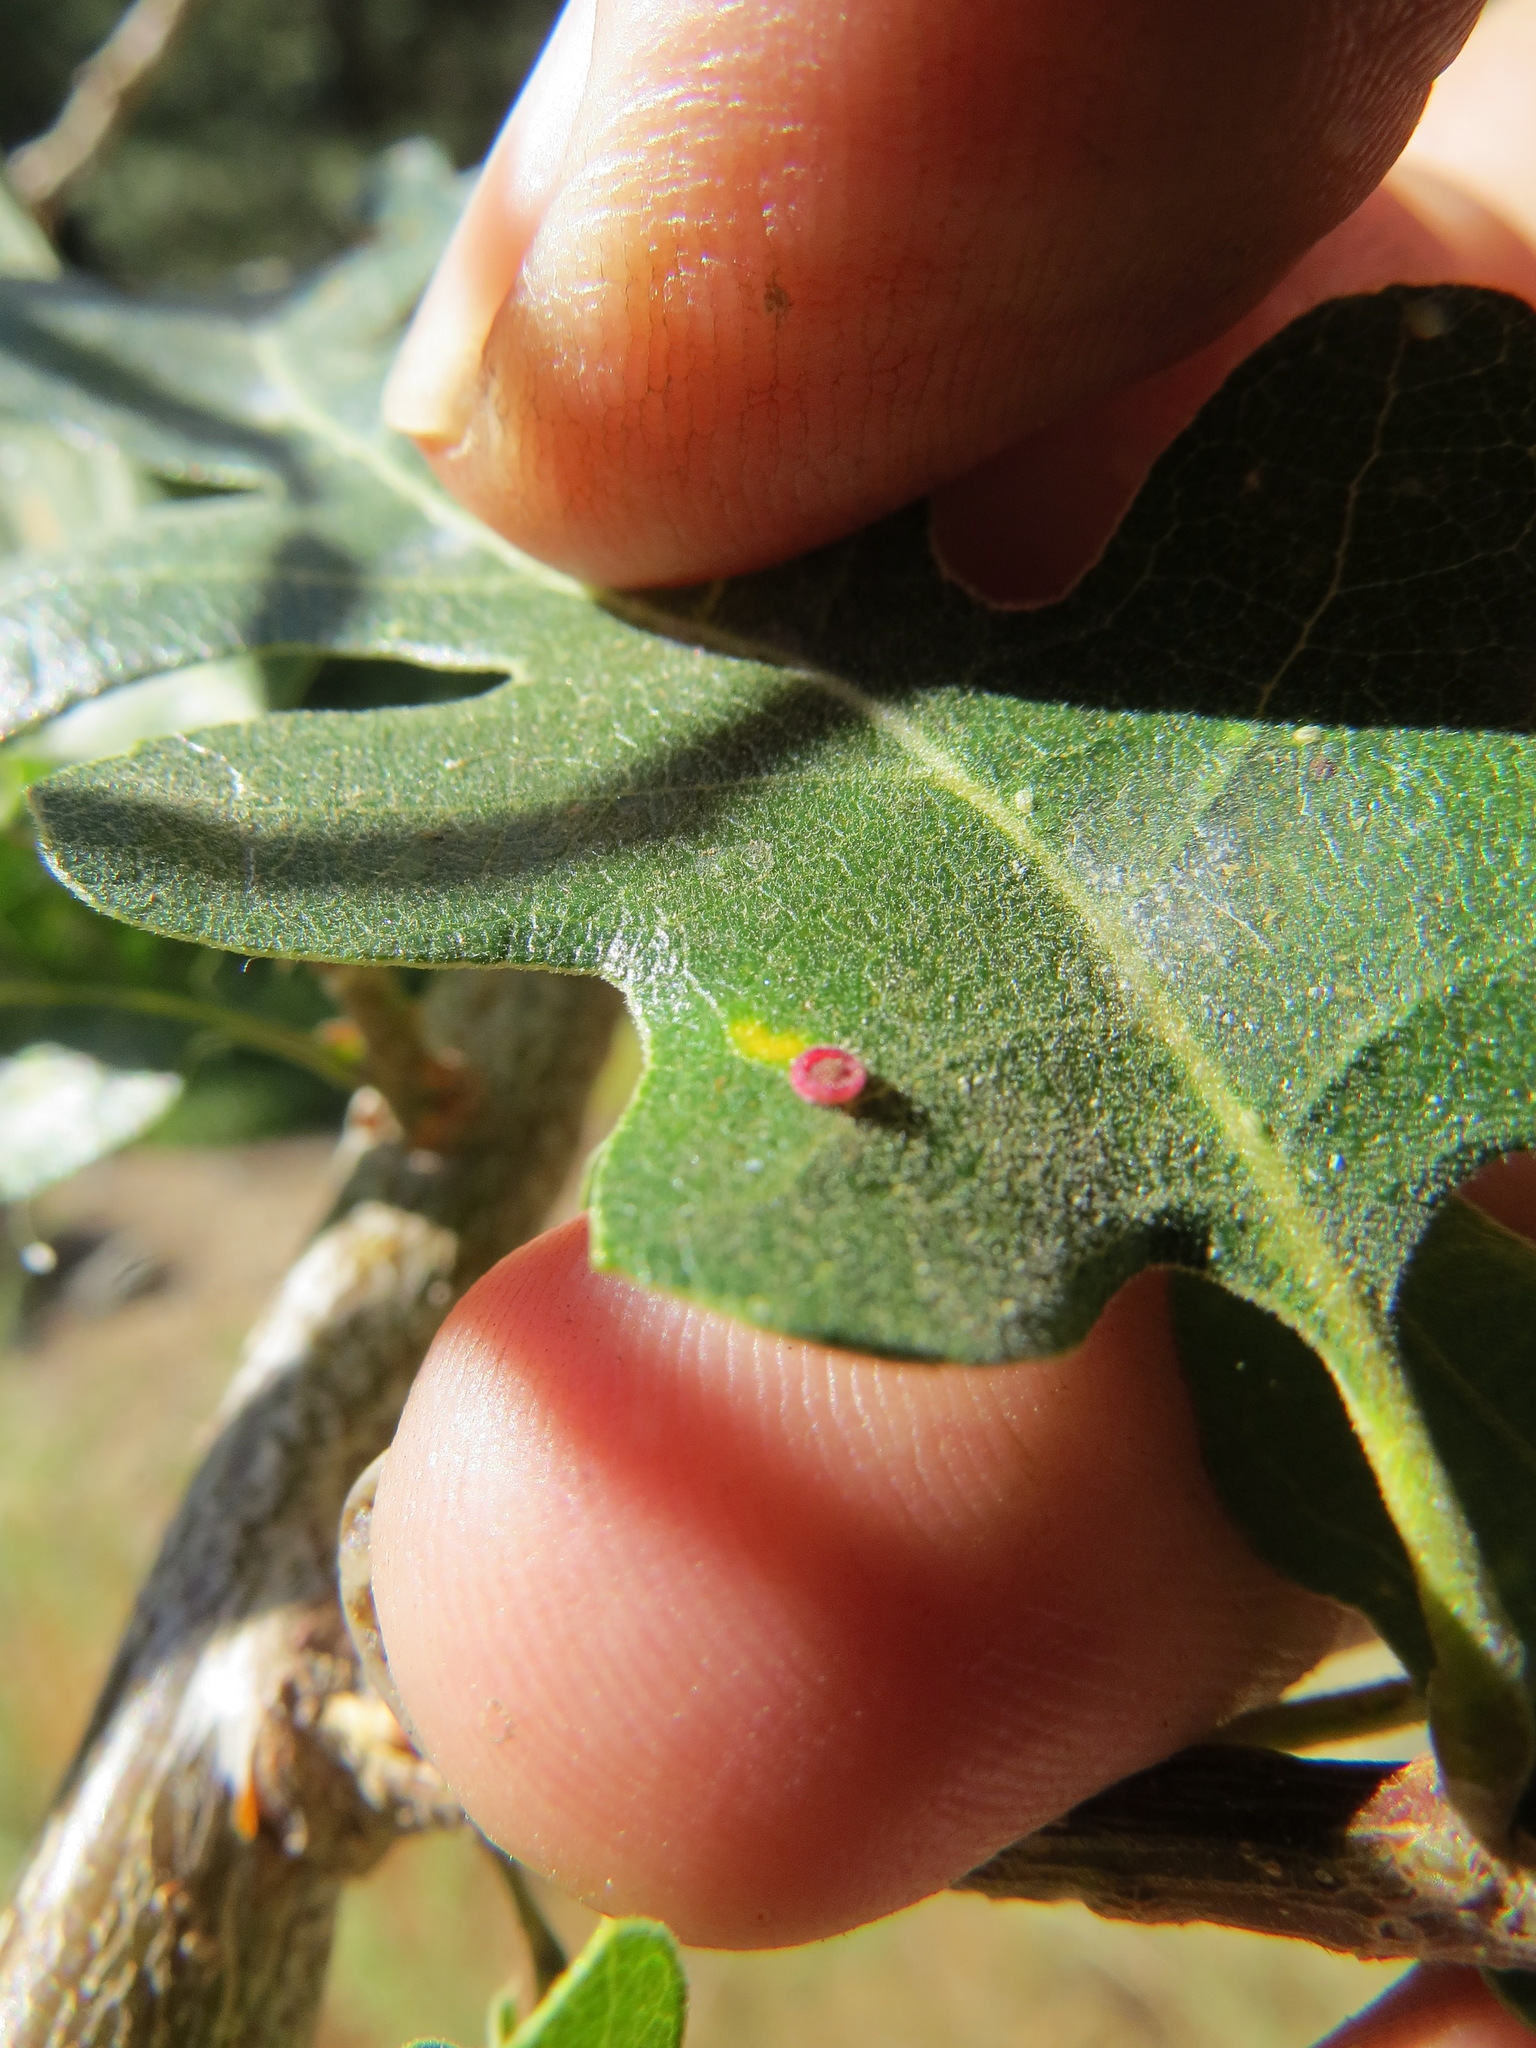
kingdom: Animalia
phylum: Arthropoda
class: Insecta
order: Hymenoptera
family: Cynipidae
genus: Andricus
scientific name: Andricus
